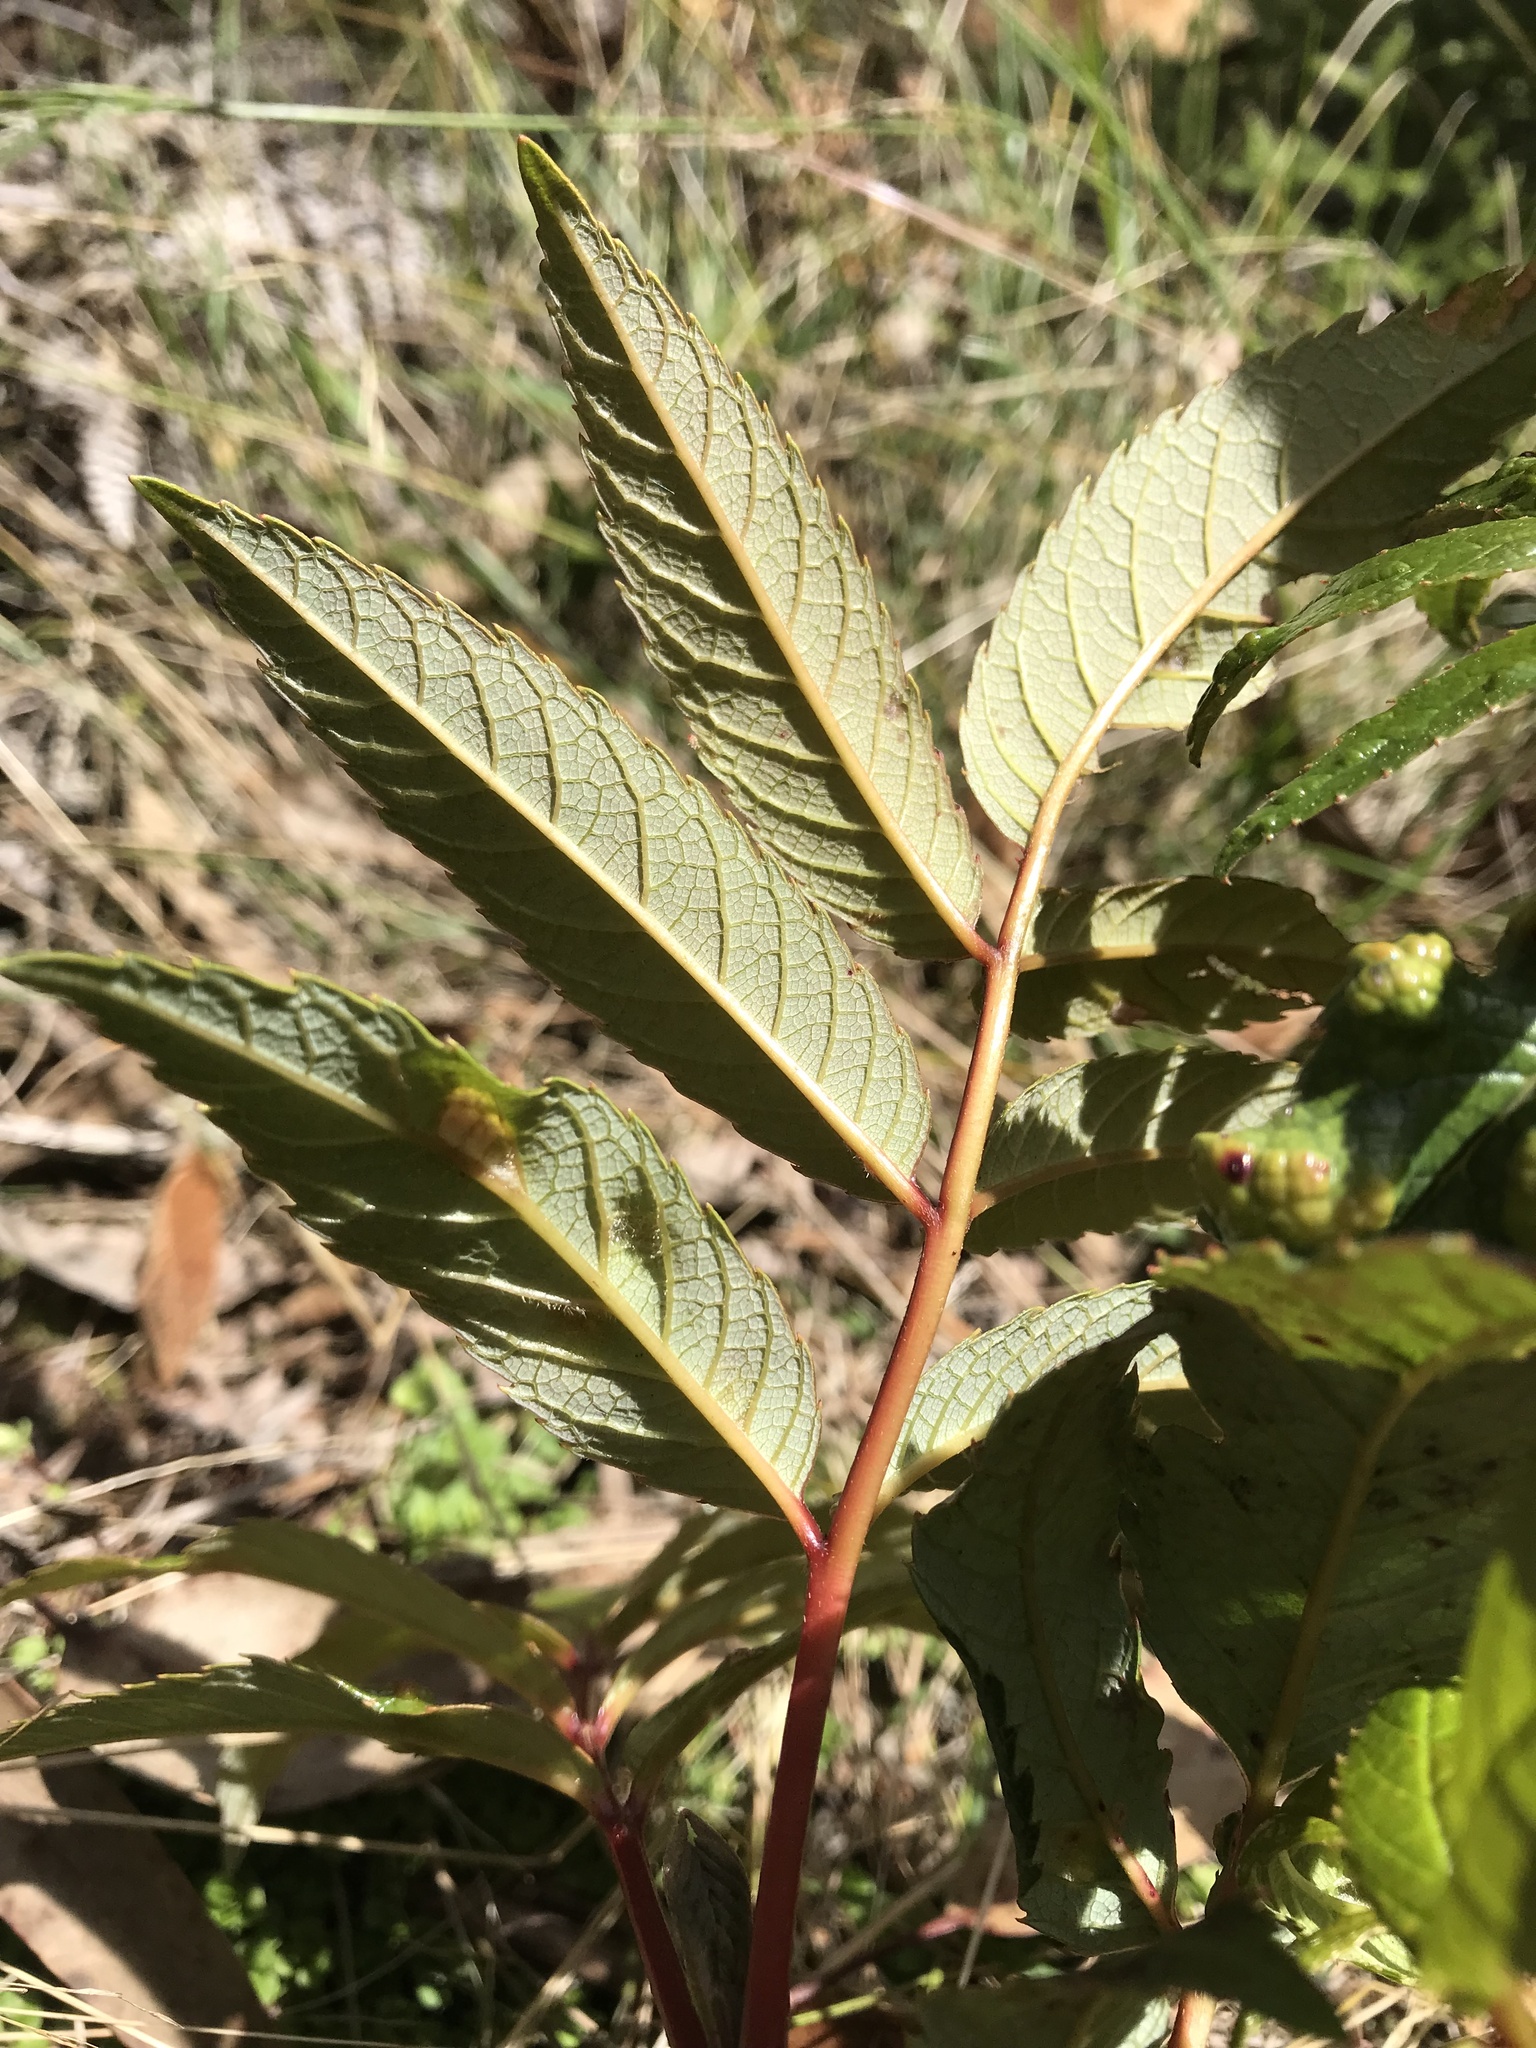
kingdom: Plantae
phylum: Tracheophyta
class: Magnoliopsida
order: Oxalidales
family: Brunelliaceae
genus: Brunellia
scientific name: Brunellia propinqua
